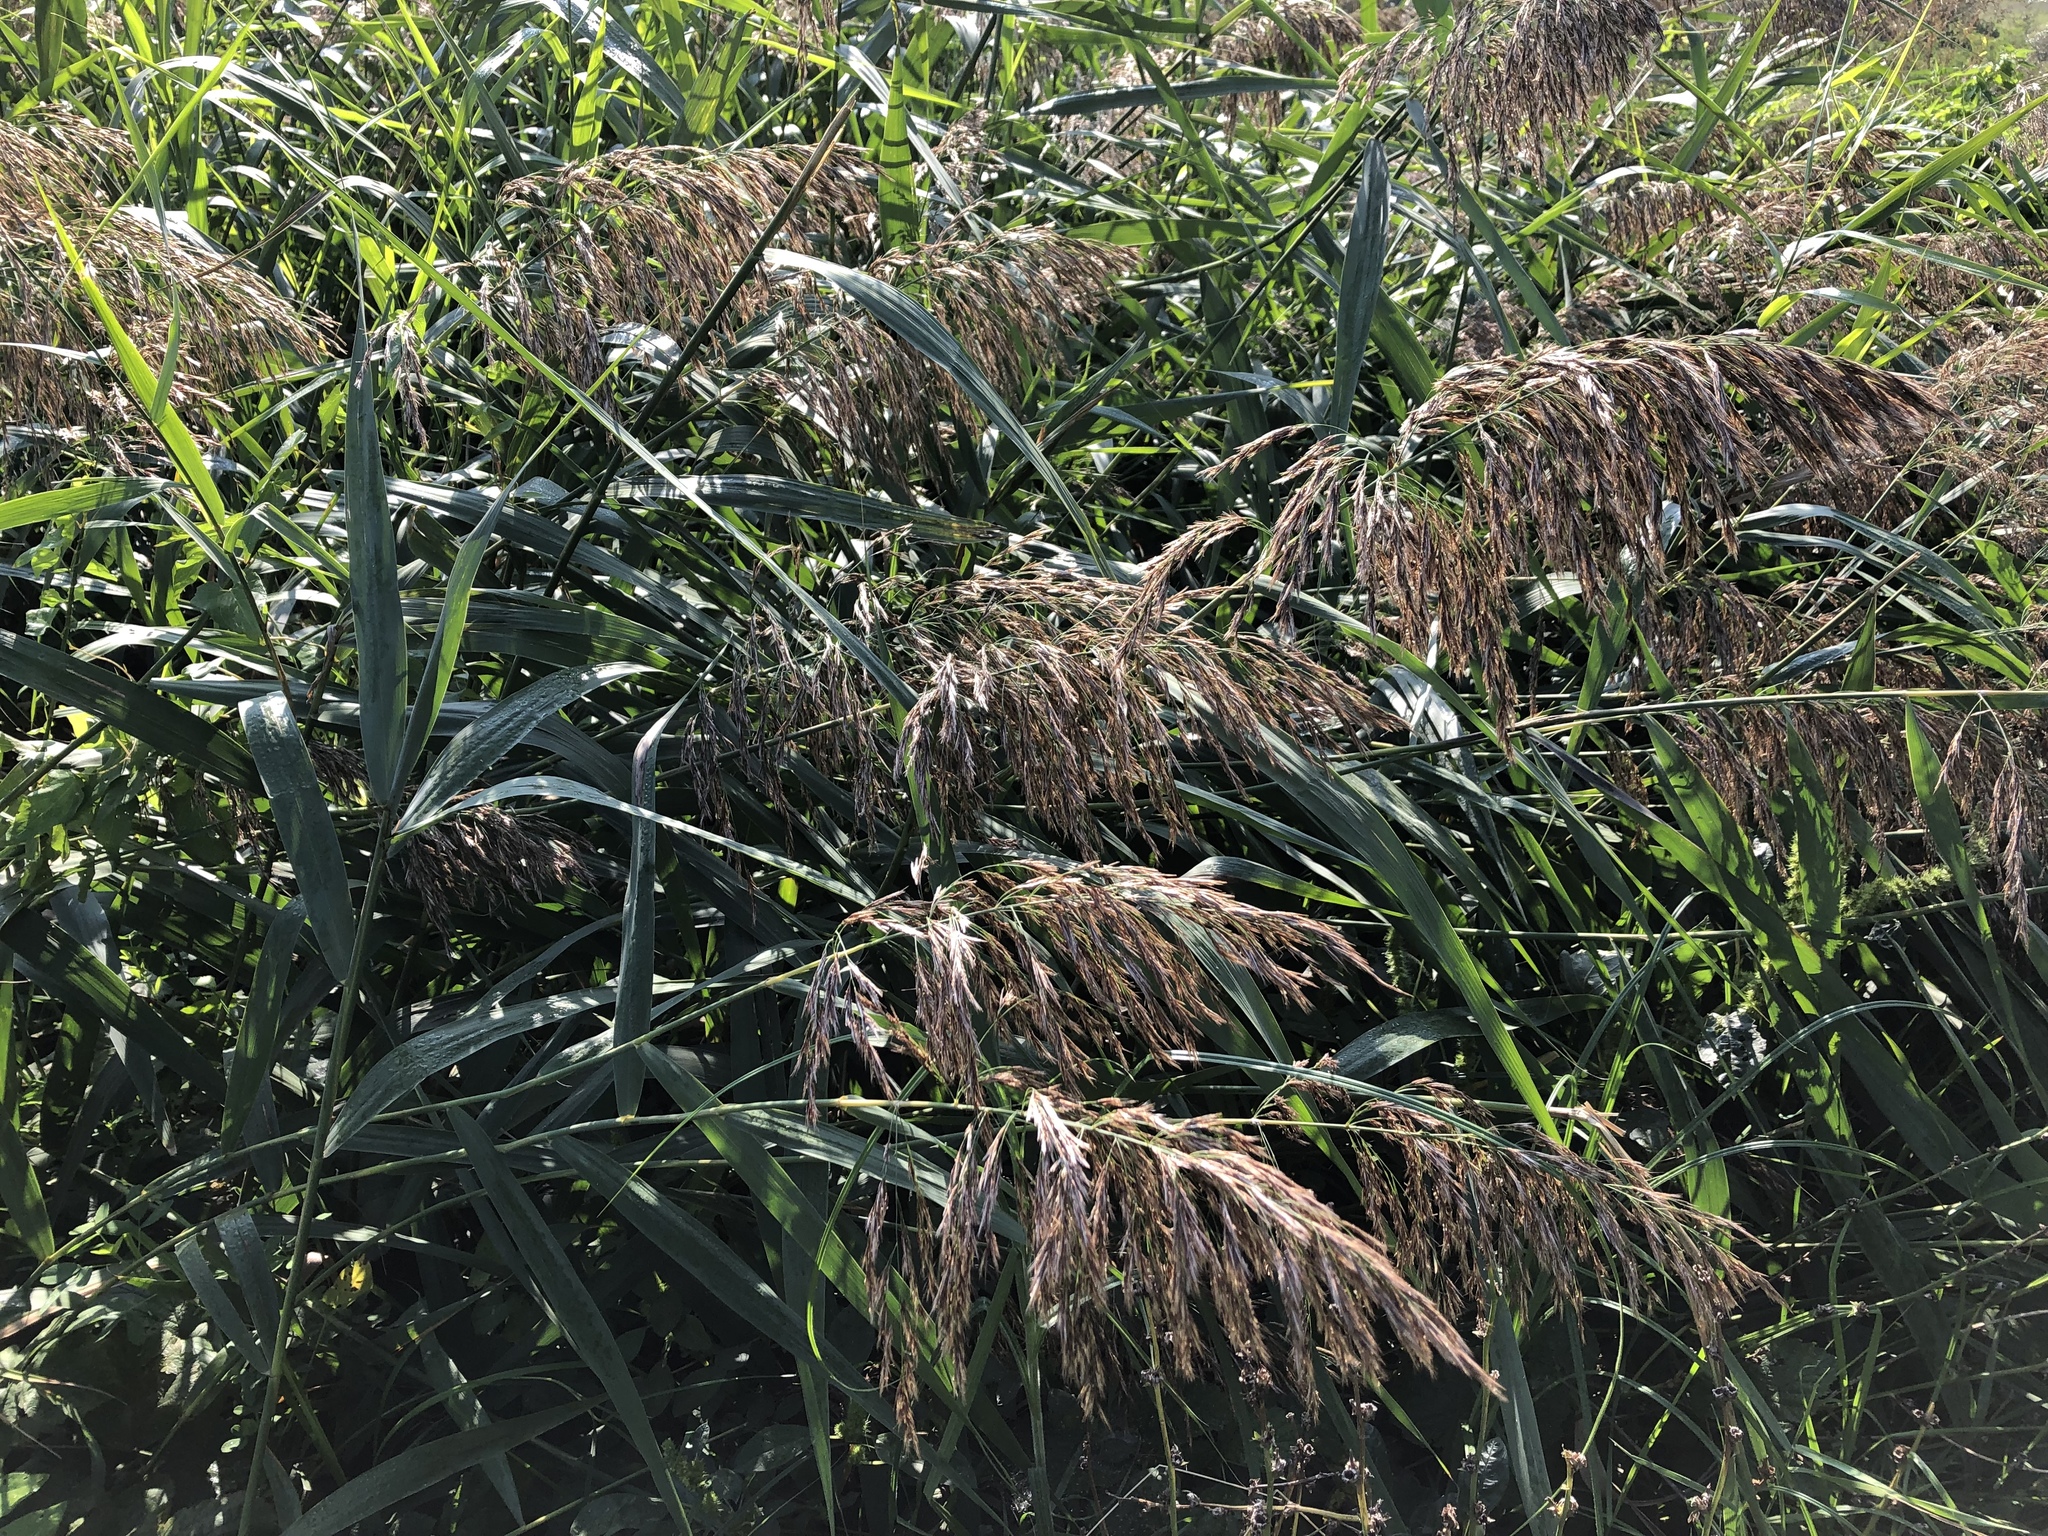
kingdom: Plantae
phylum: Tracheophyta
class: Liliopsida
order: Poales
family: Poaceae
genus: Phragmites
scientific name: Phragmites australis
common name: Common reed
